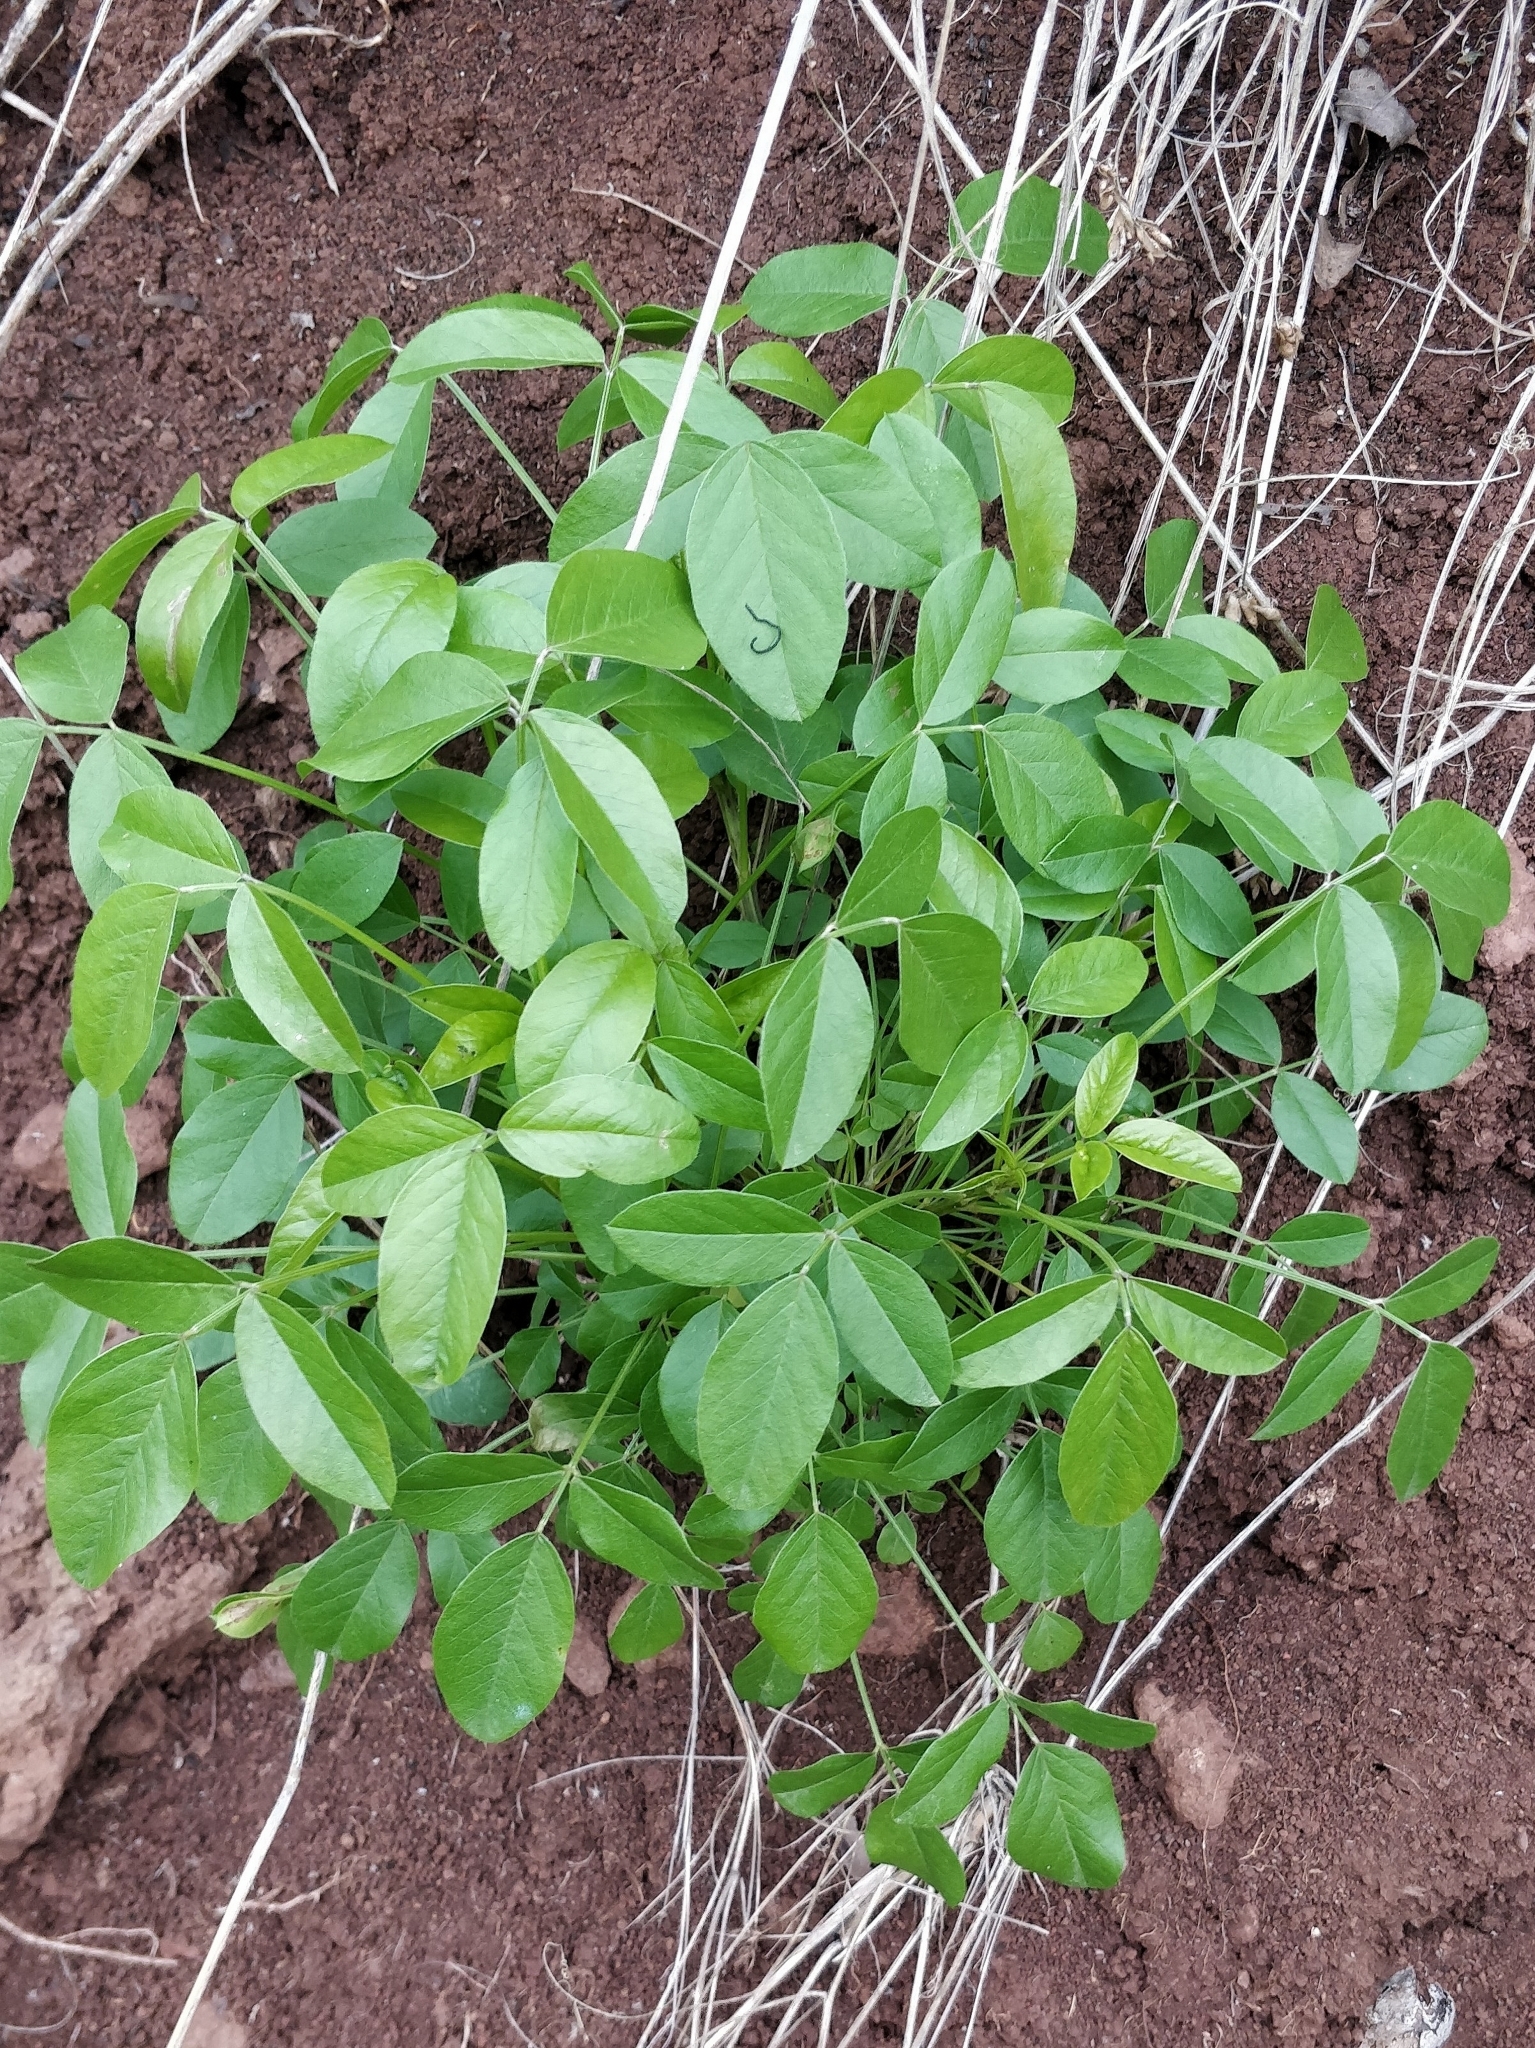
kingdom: Plantae
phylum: Tracheophyta
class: Magnoliopsida
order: Fabales
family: Fabaceae
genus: Bituminaria
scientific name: Bituminaria bituminosa
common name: Arabian pea
